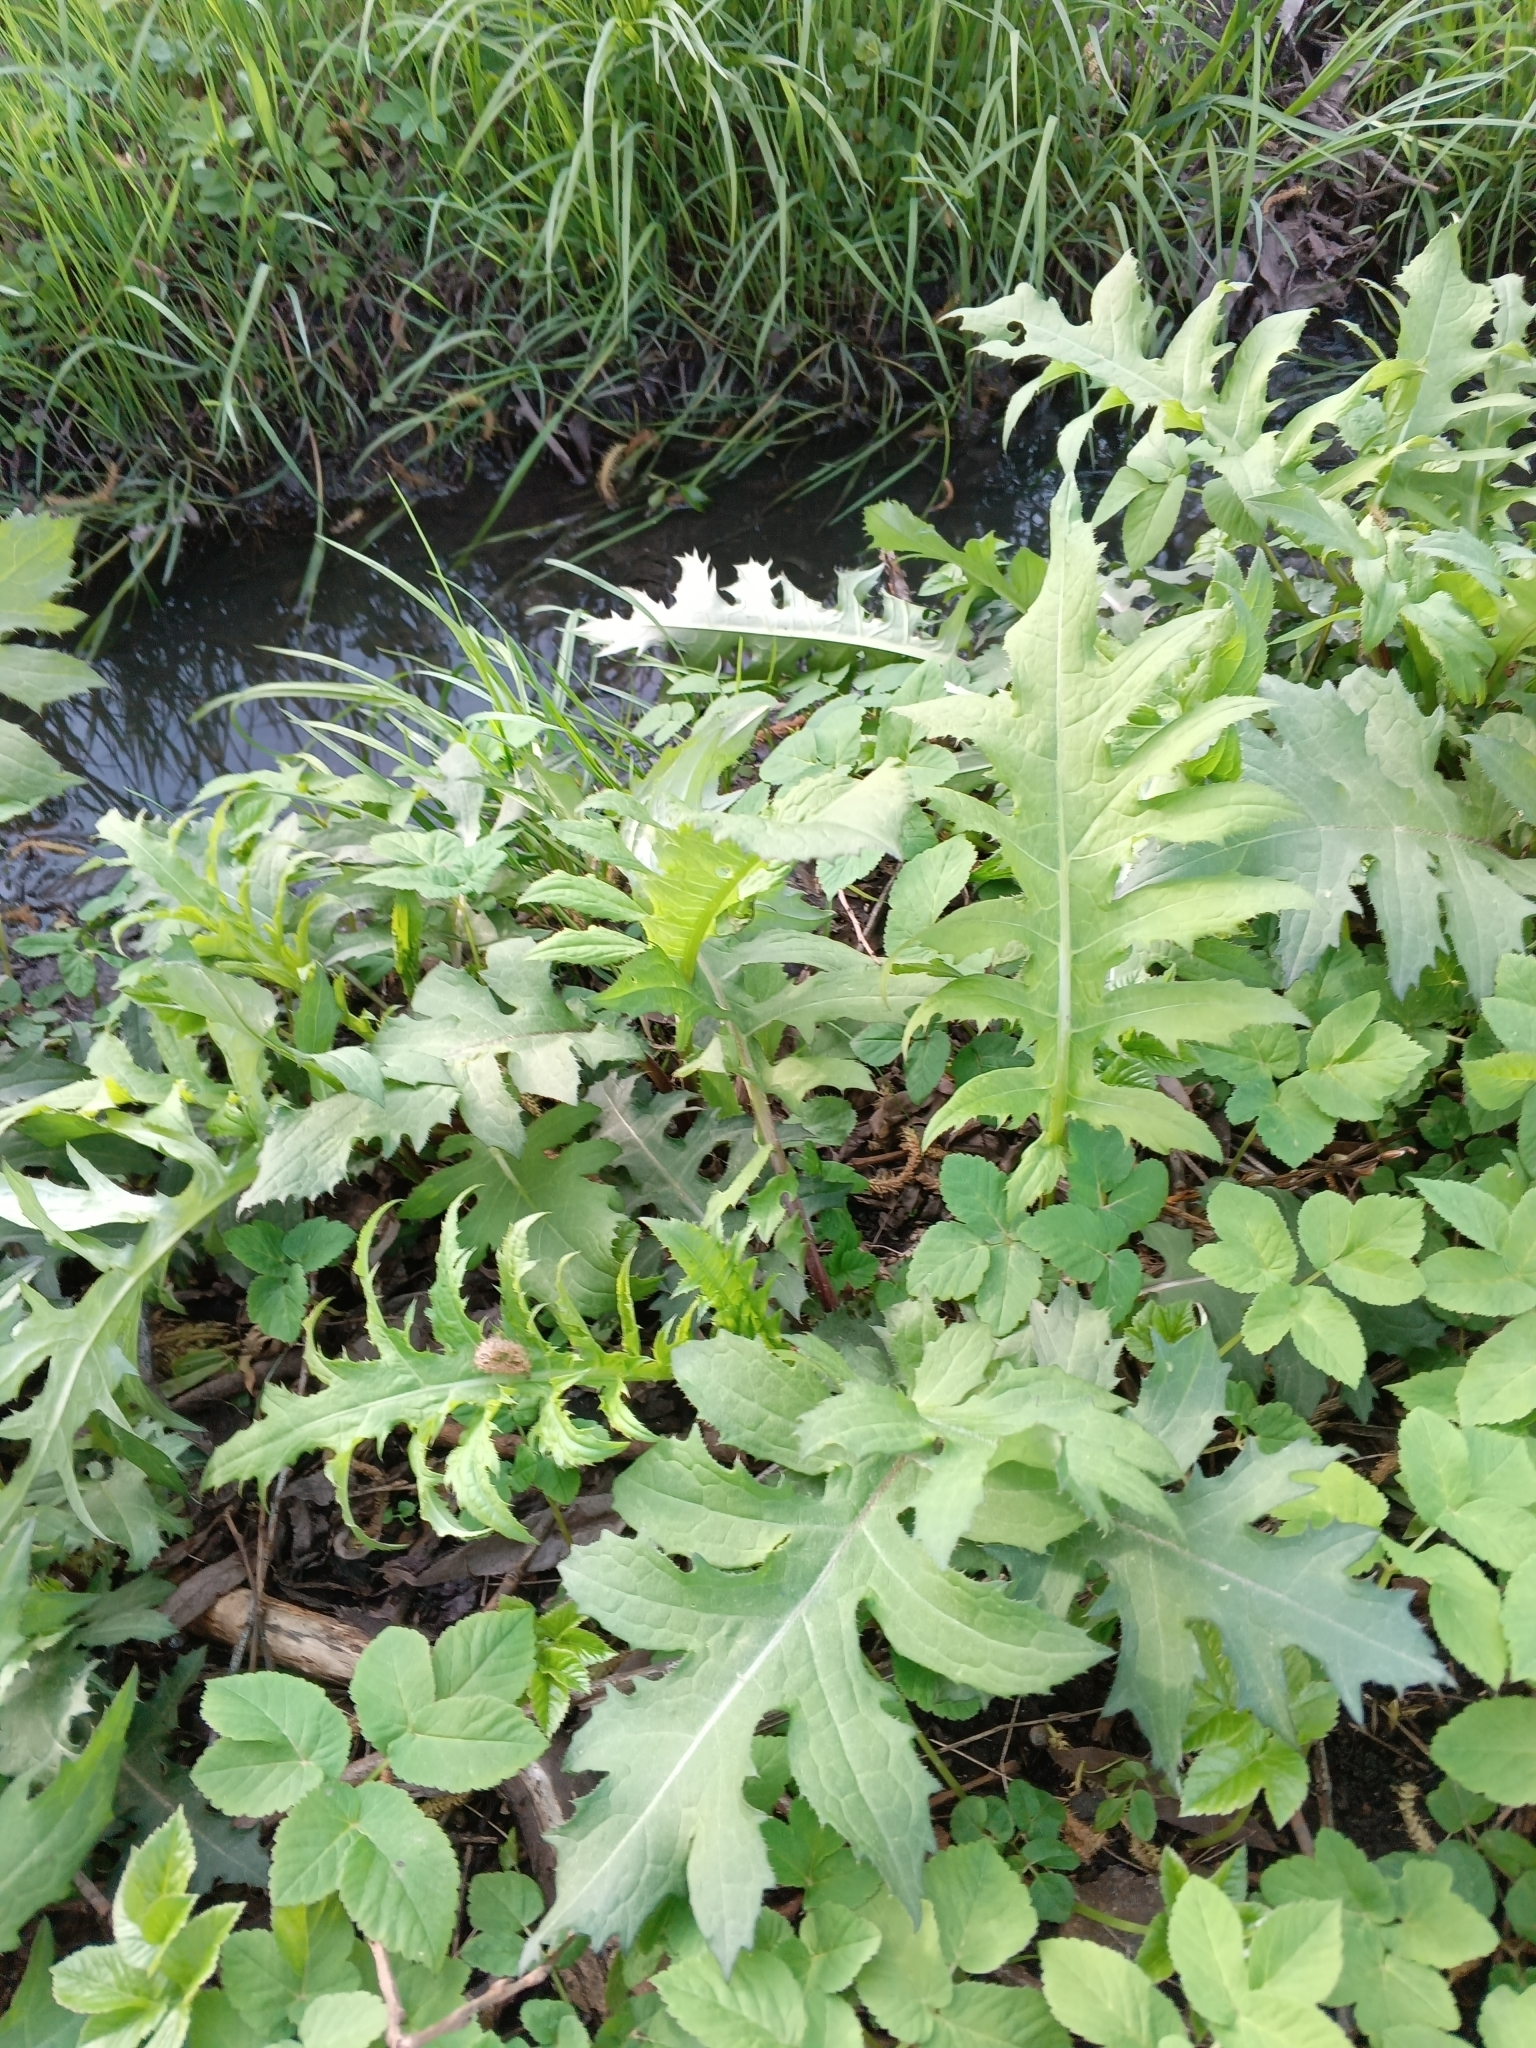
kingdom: Plantae
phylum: Tracheophyta
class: Magnoliopsida
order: Asterales
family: Asteraceae
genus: Cirsium
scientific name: Cirsium oleraceum
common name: Cabbage thistle
